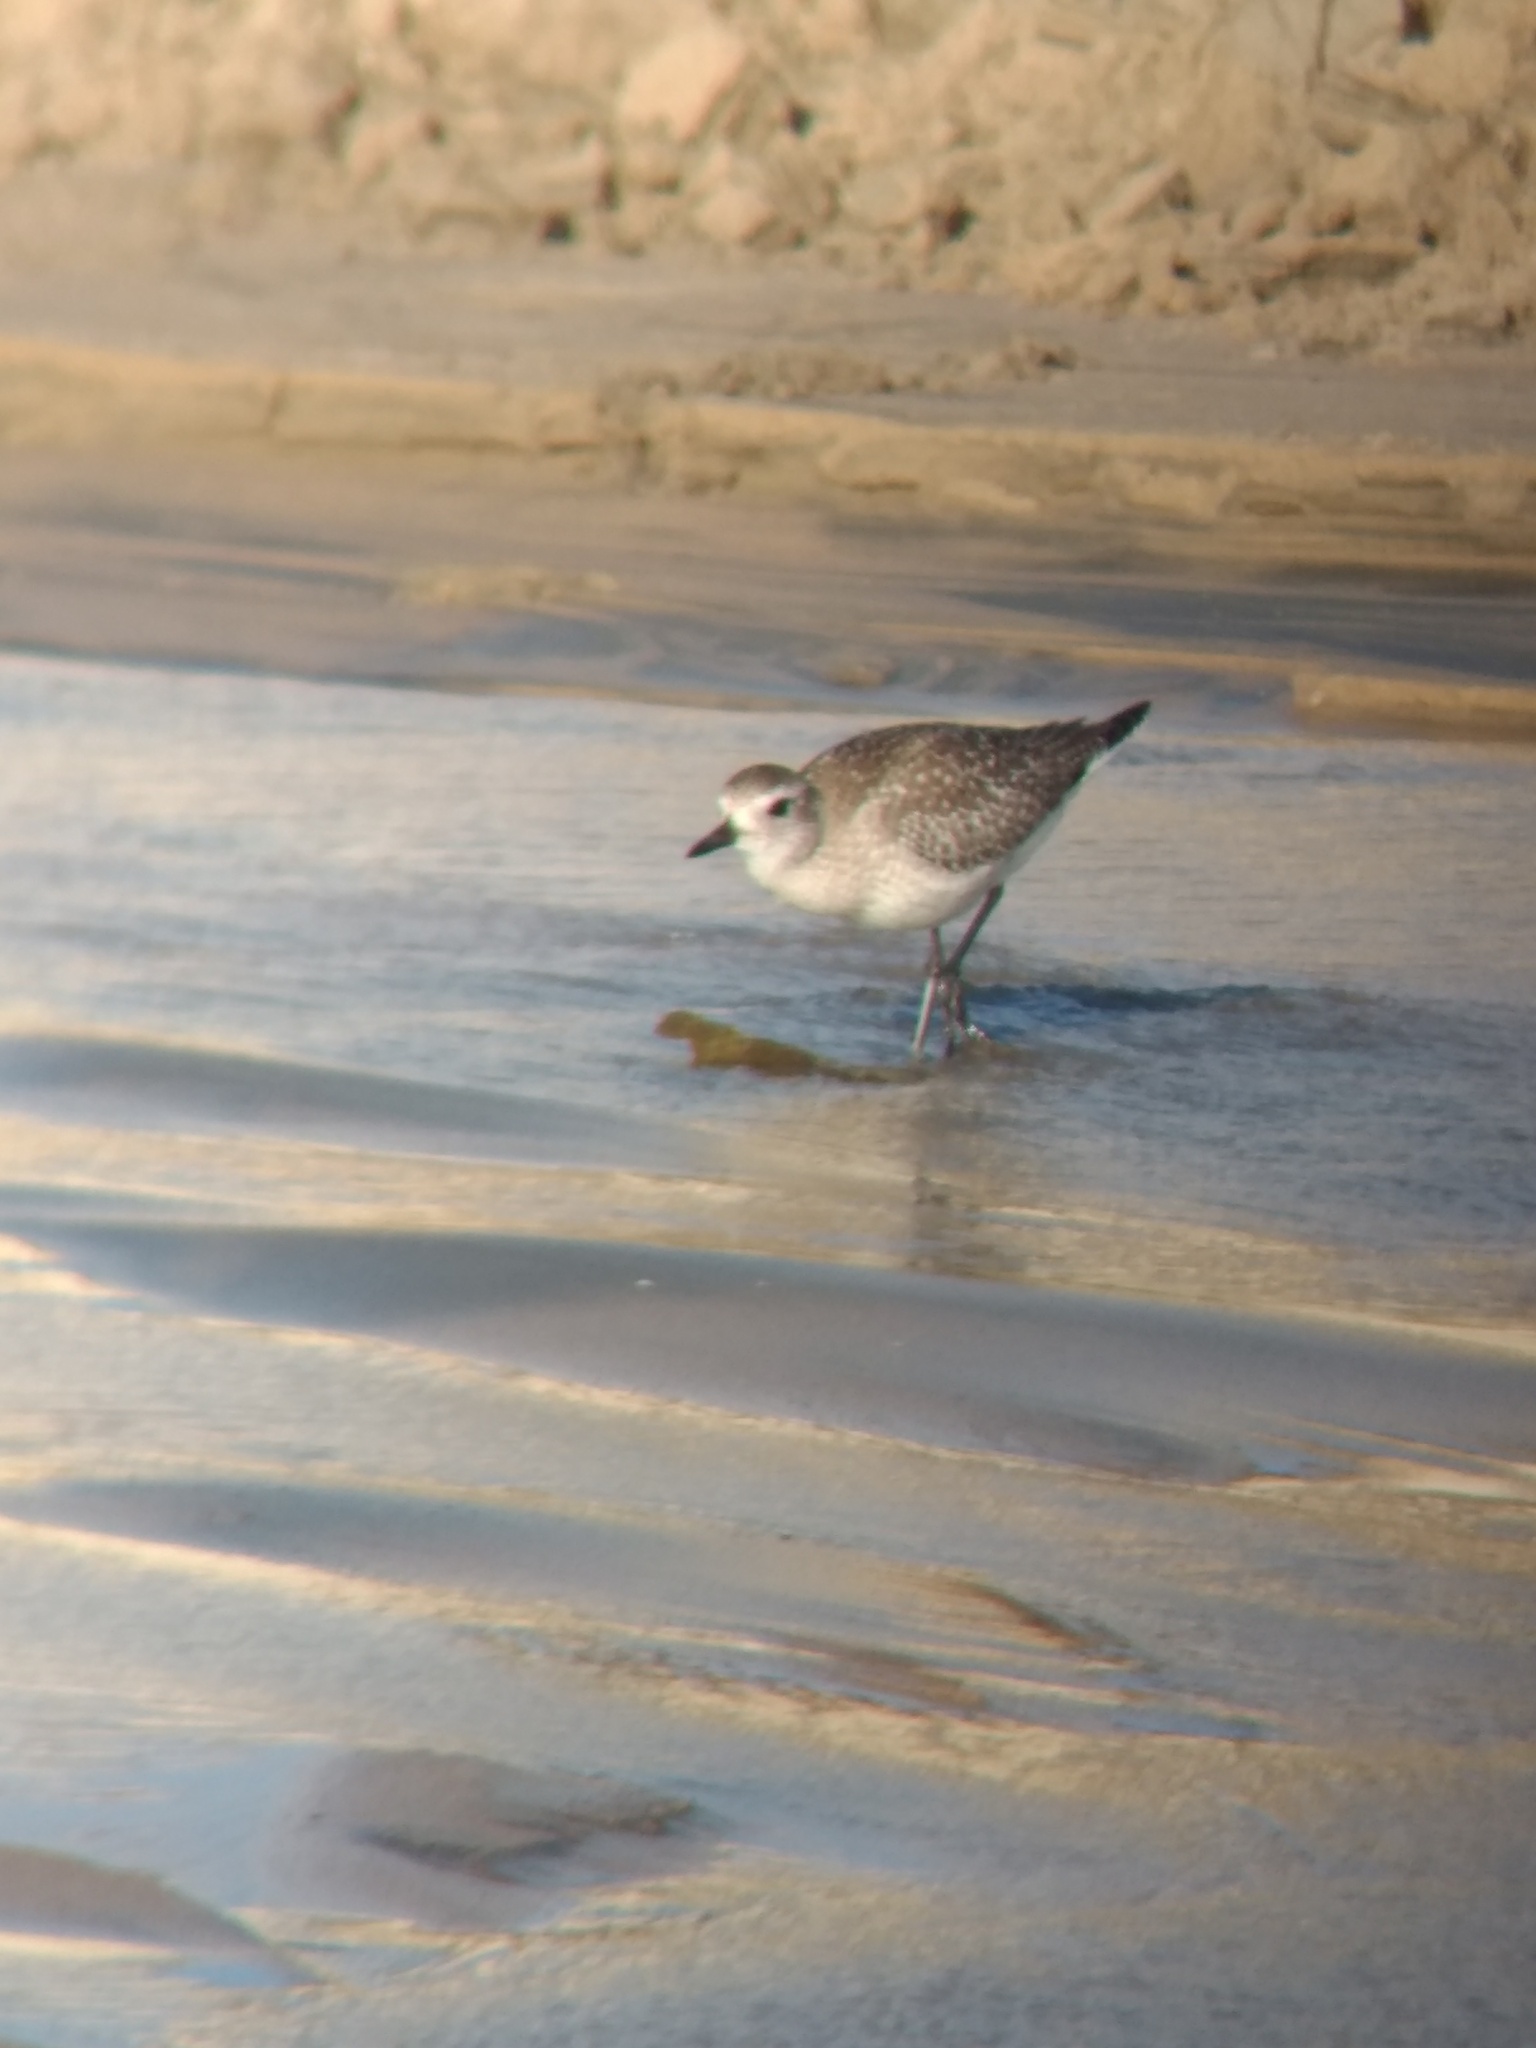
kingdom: Animalia
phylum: Chordata
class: Aves
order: Charadriiformes
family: Charadriidae
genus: Pluvialis
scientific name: Pluvialis squatarola
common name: Grey plover
